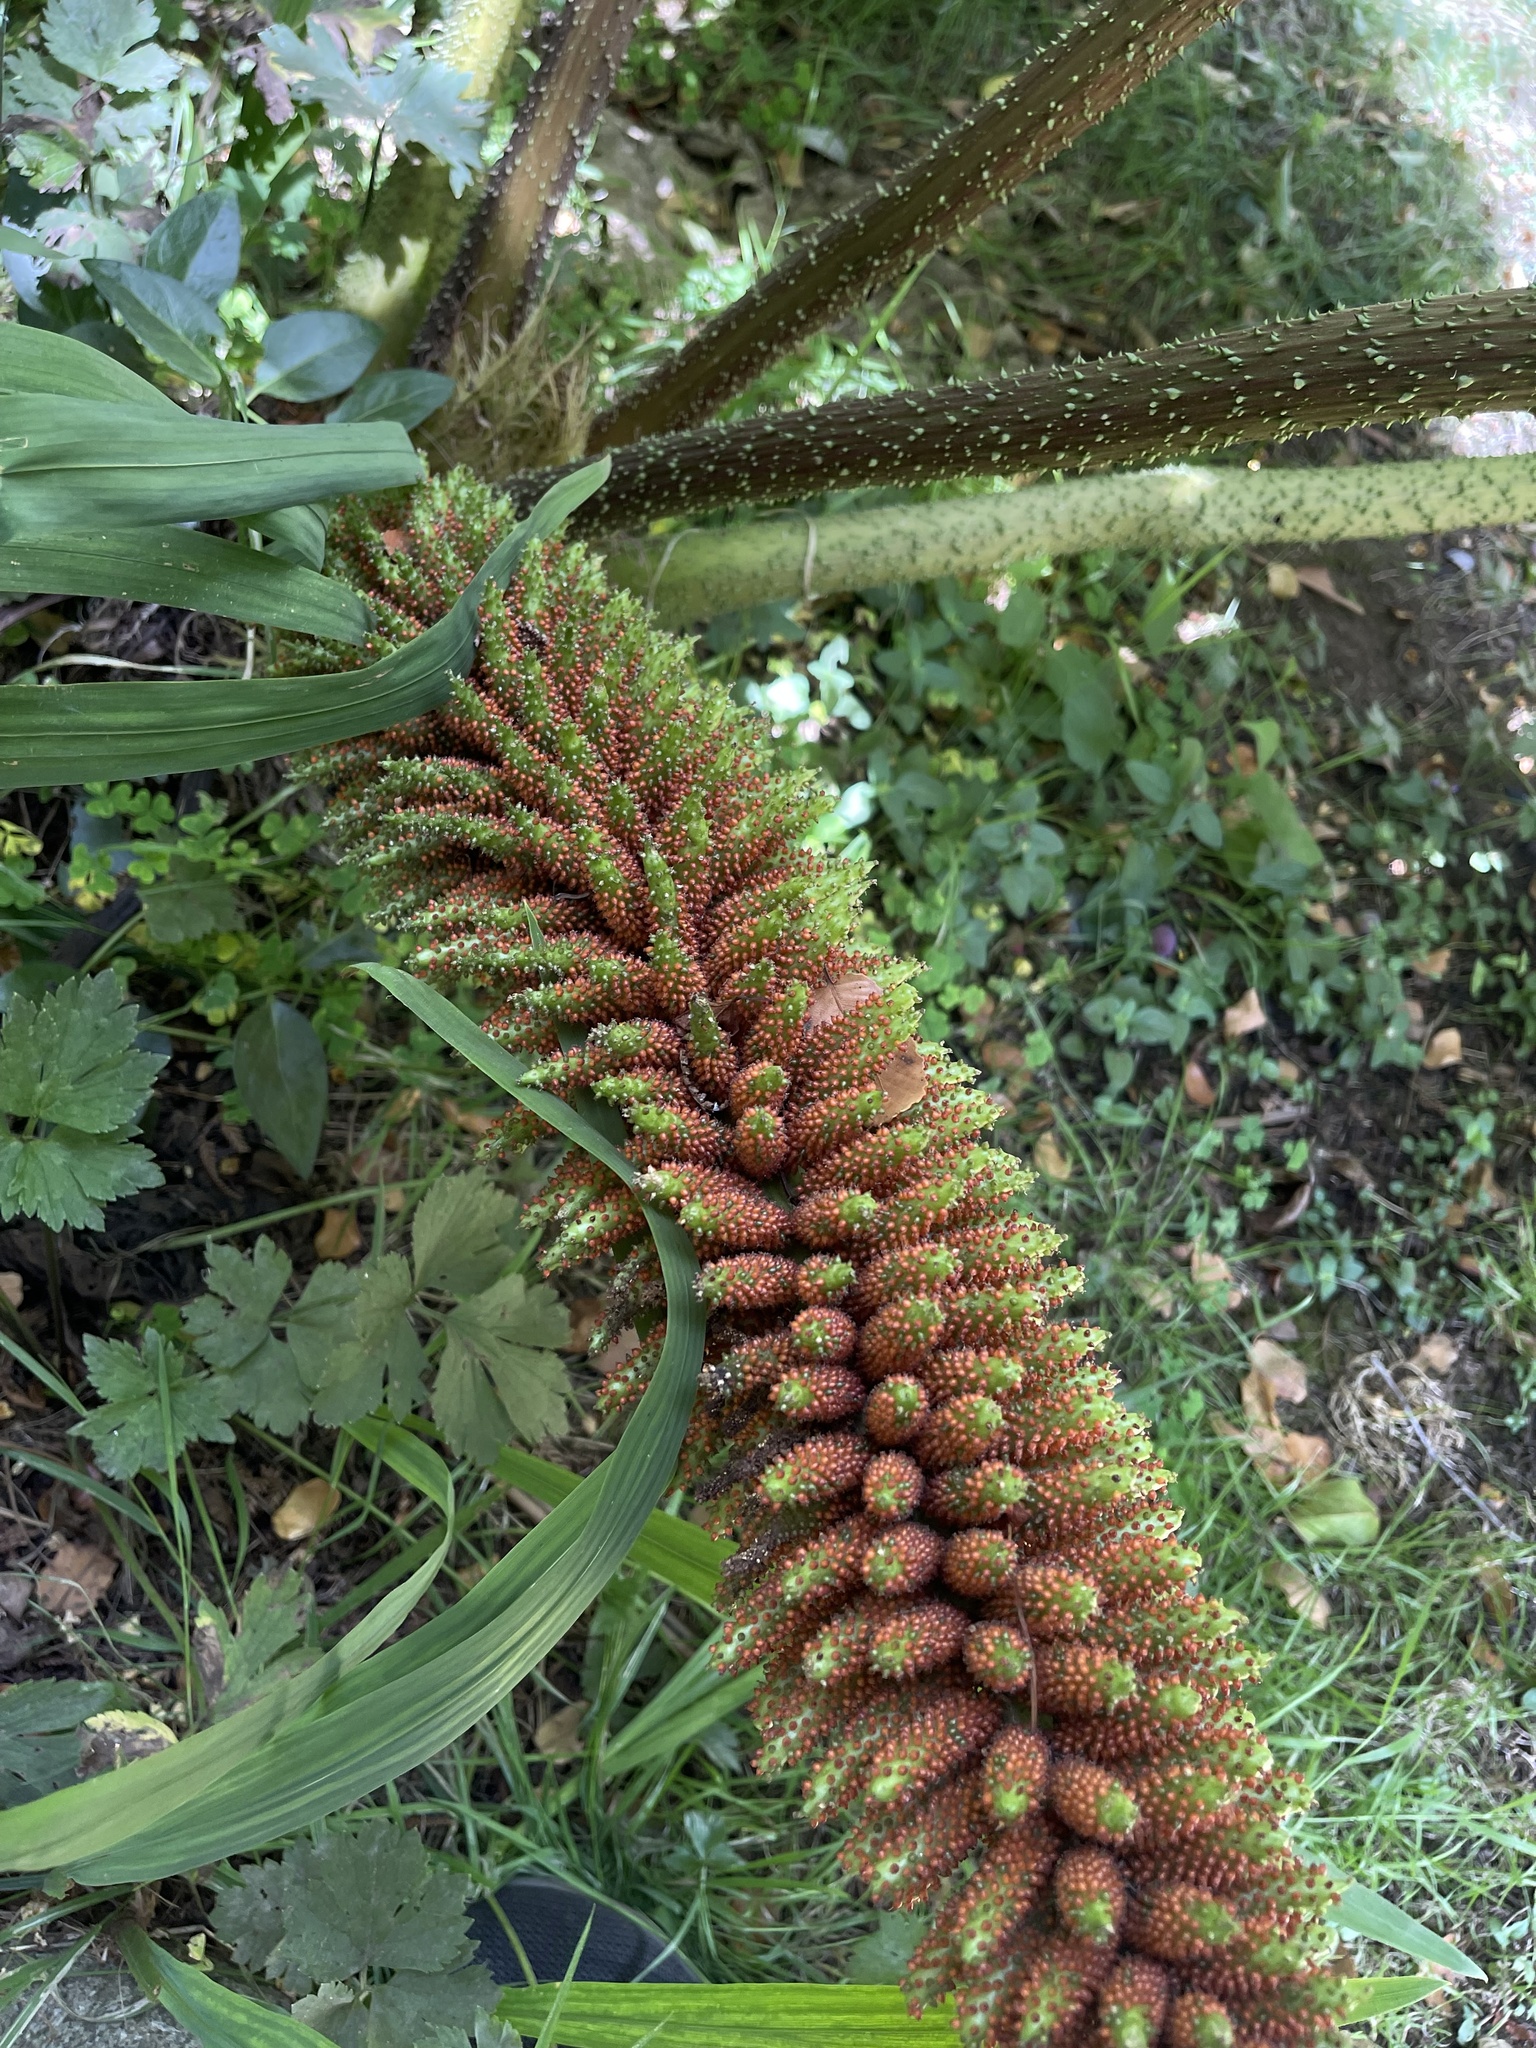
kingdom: Plantae
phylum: Tracheophyta
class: Magnoliopsida
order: Gunnerales
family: Gunneraceae
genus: Gunnera
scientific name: Gunnera tinctoria
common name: Giant-rhubarb
